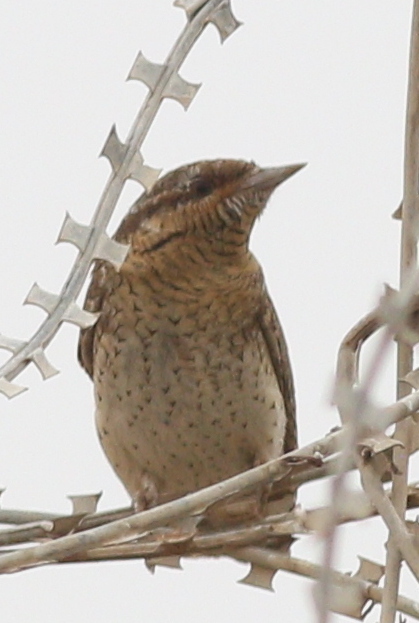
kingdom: Animalia
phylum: Chordata
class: Aves
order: Piciformes
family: Picidae
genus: Jynx
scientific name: Jynx torquilla
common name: Eurasian wryneck
